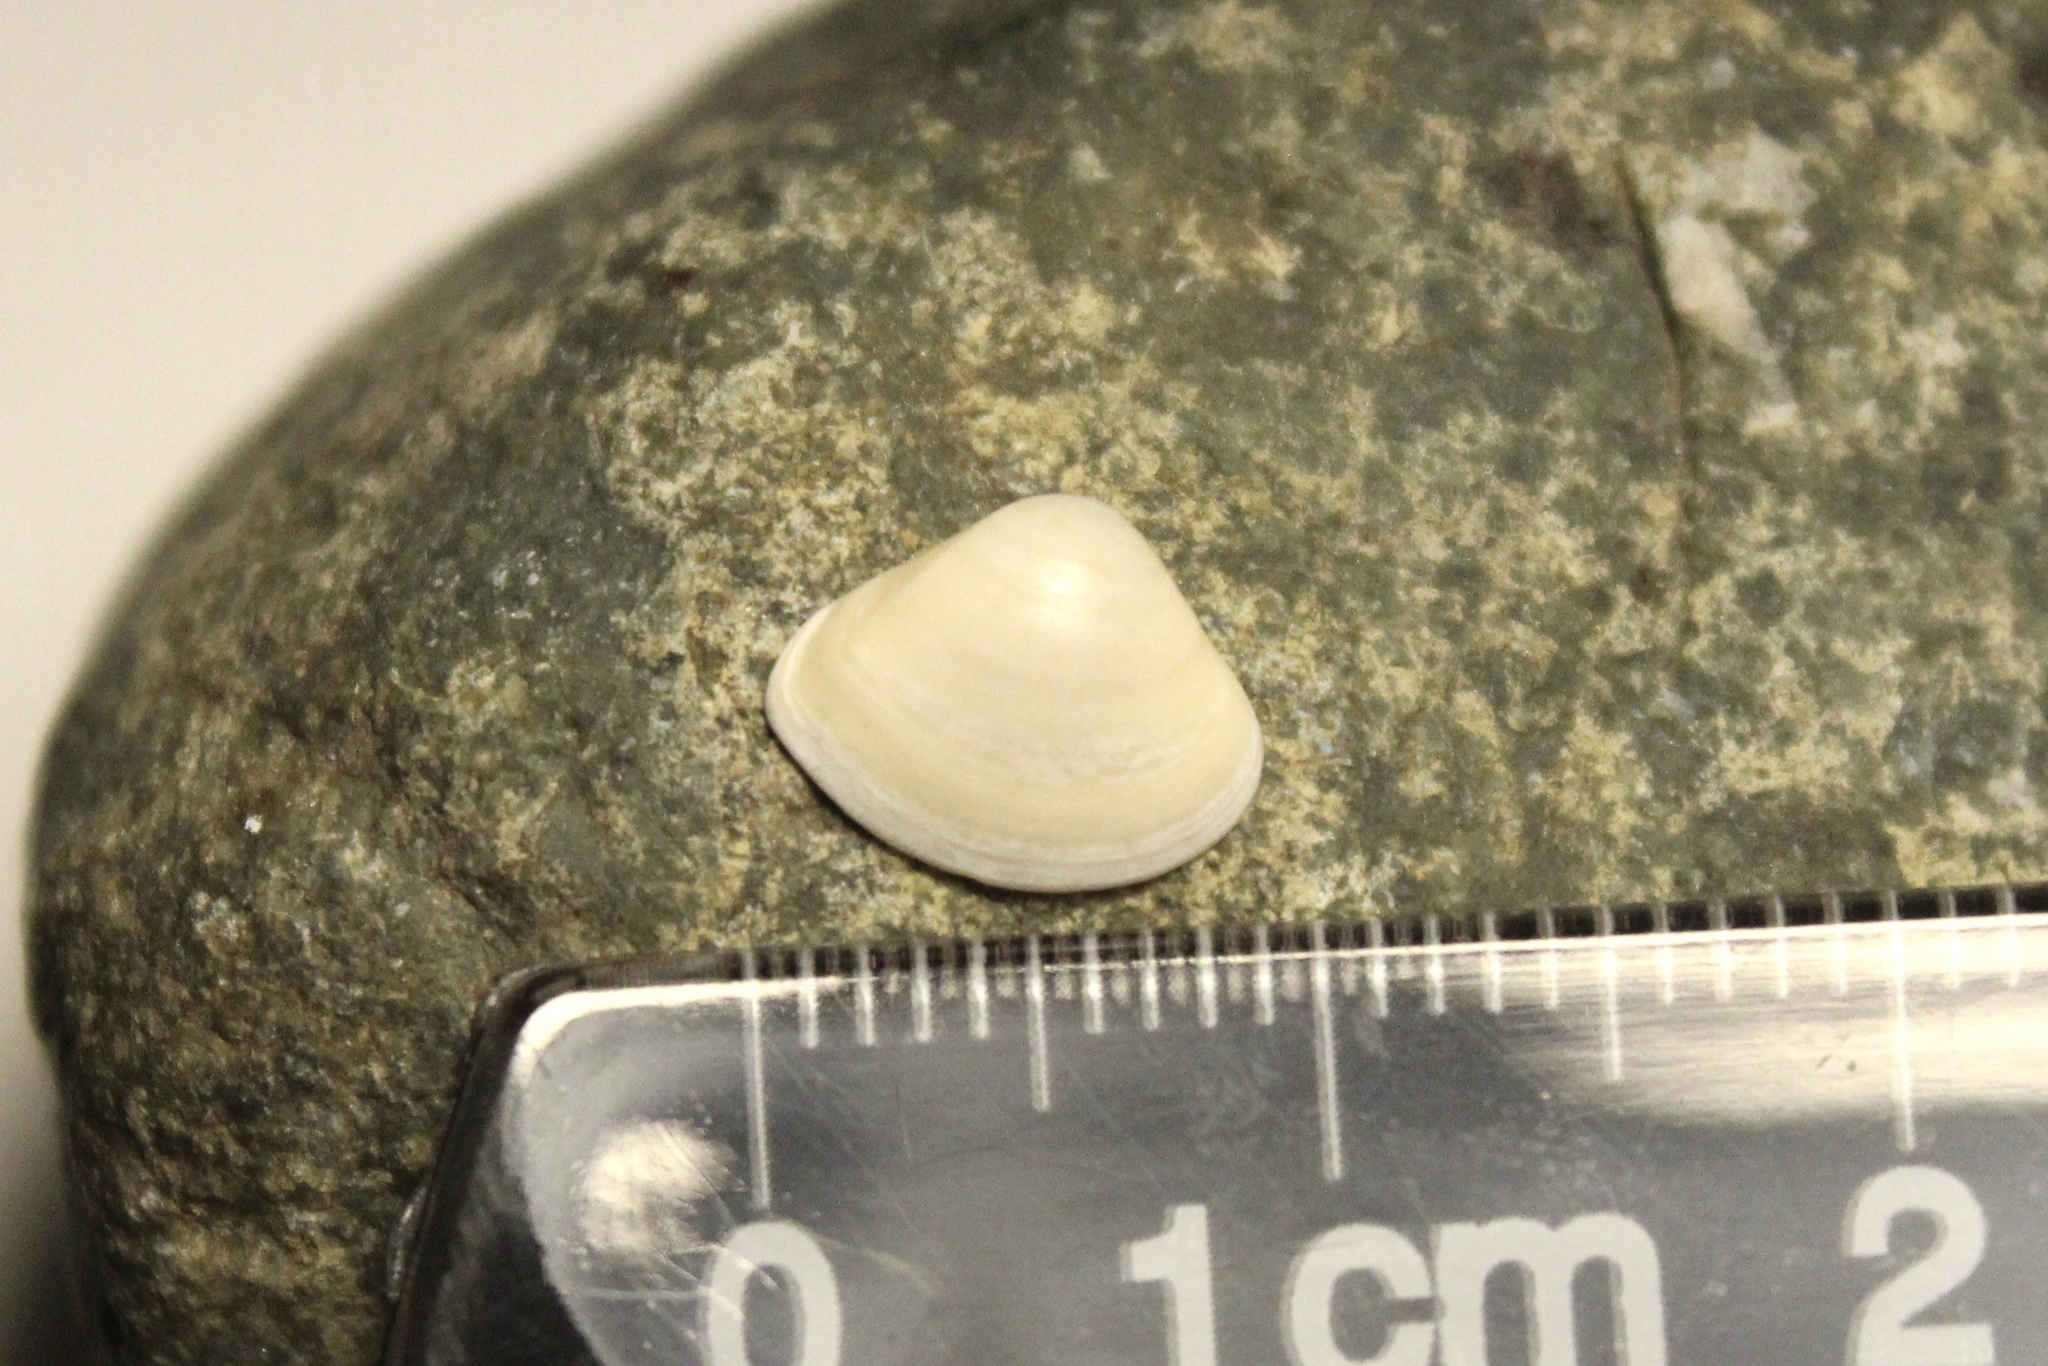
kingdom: Animalia
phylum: Mollusca
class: Bivalvia
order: Venerida
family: Mactridae
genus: Mulinia
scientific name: Mulinia lateralis
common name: Dwarf surfclam
